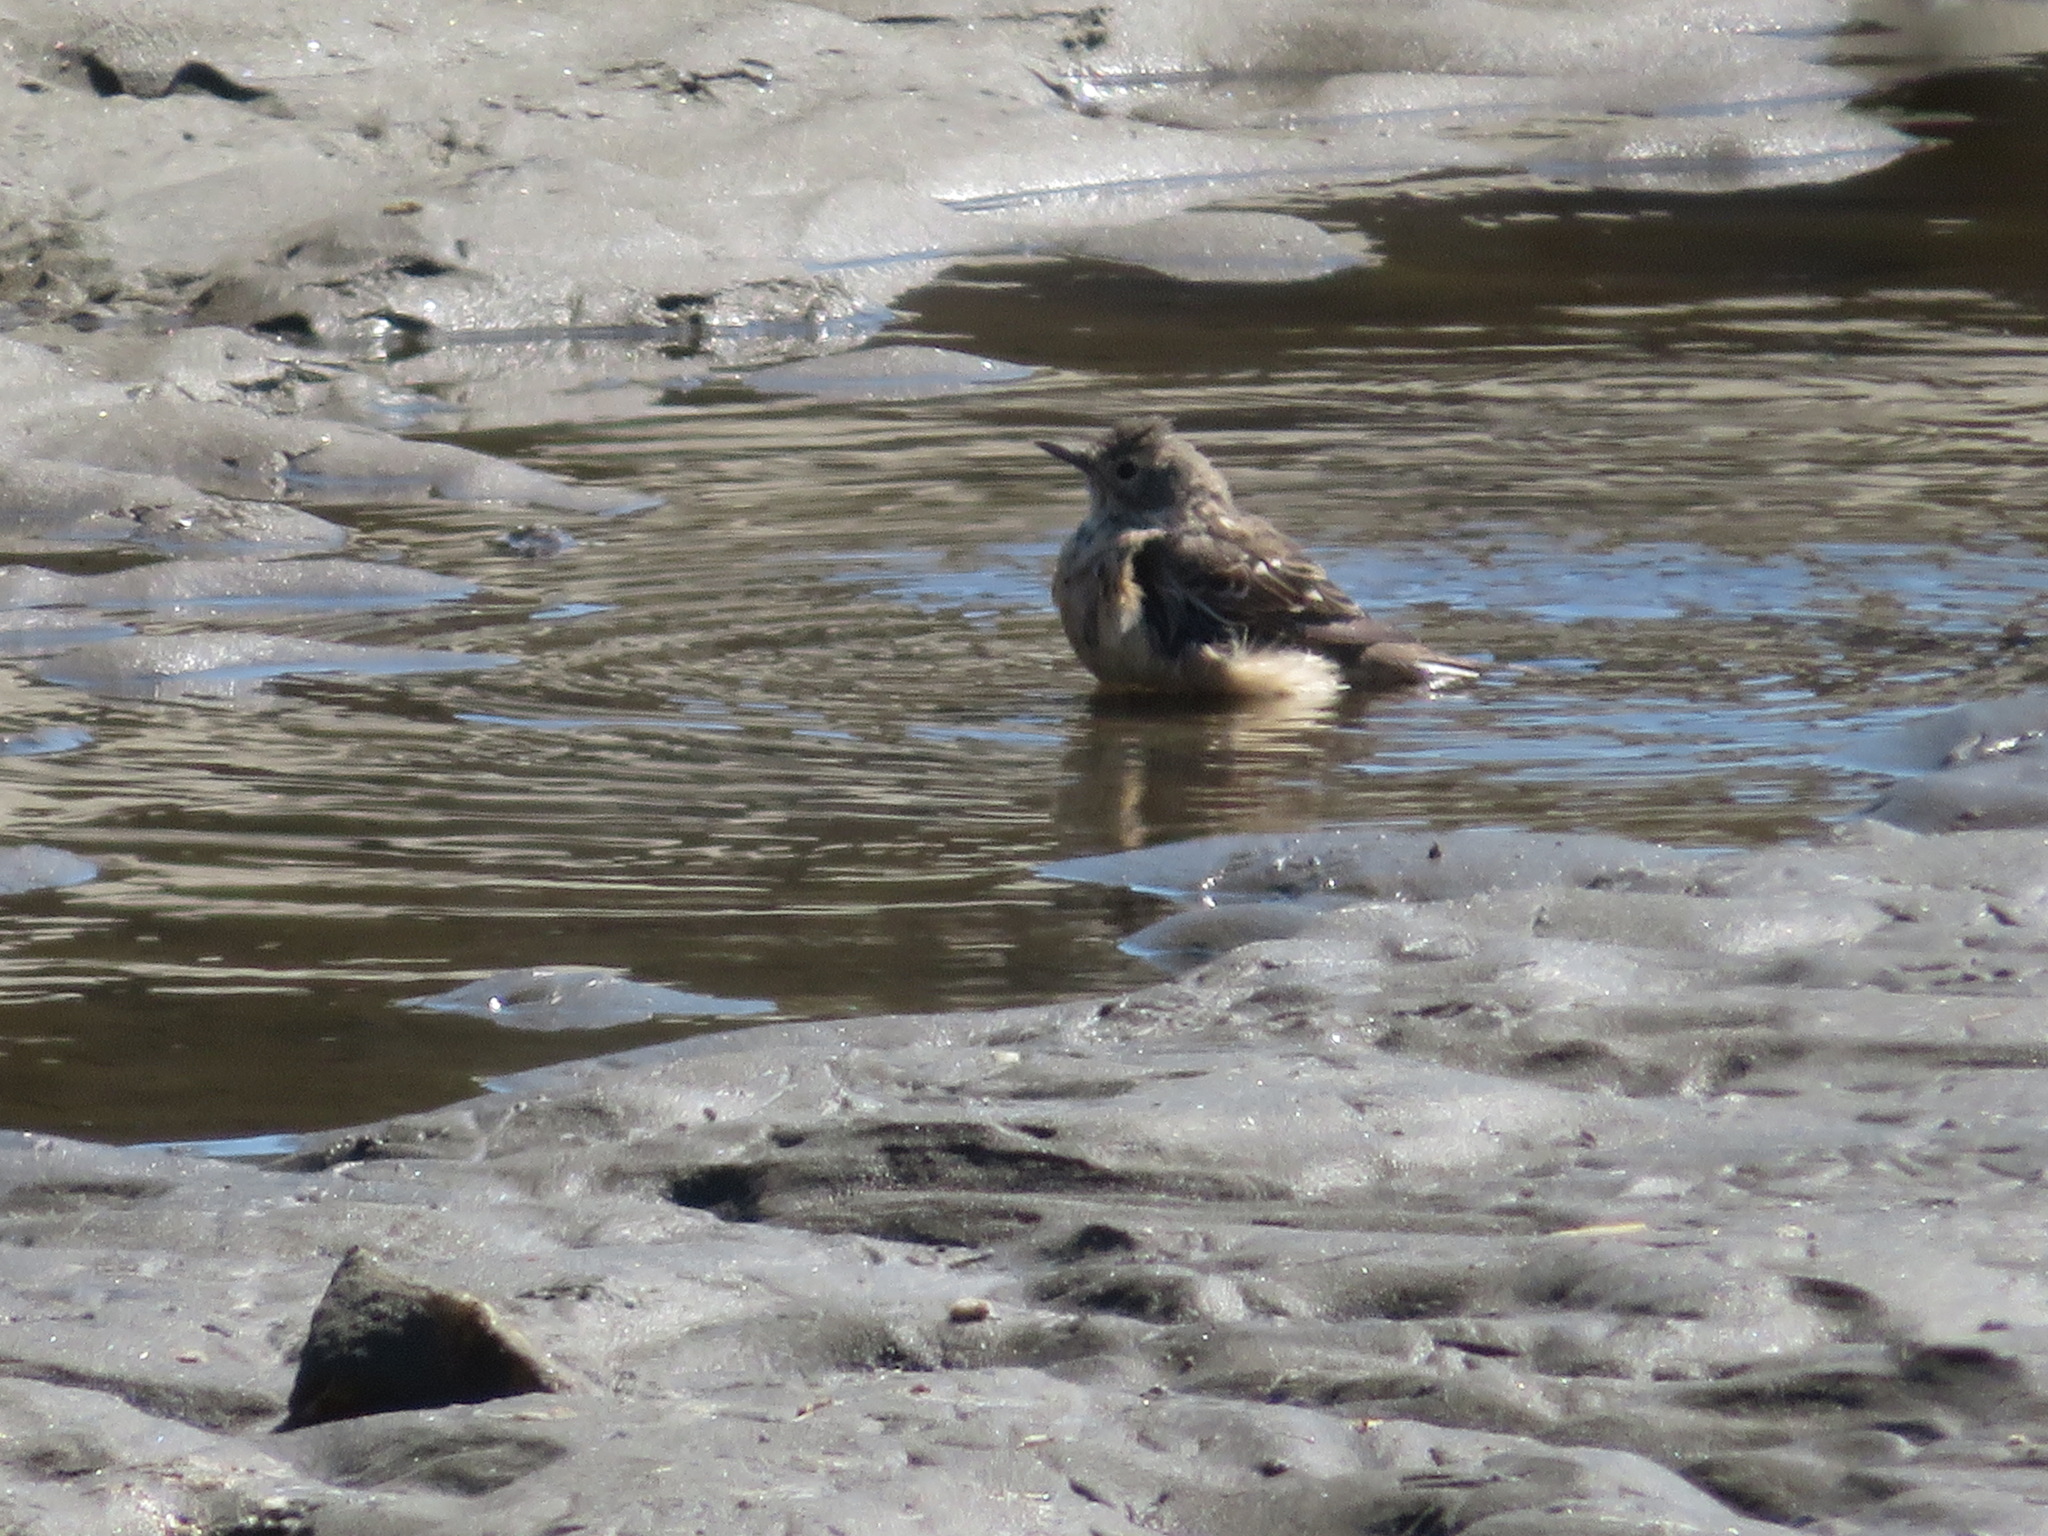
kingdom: Animalia
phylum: Chordata
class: Aves
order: Passeriformes
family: Motacillidae
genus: Anthus
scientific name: Anthus rubescens
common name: Buff-bellied pipit
